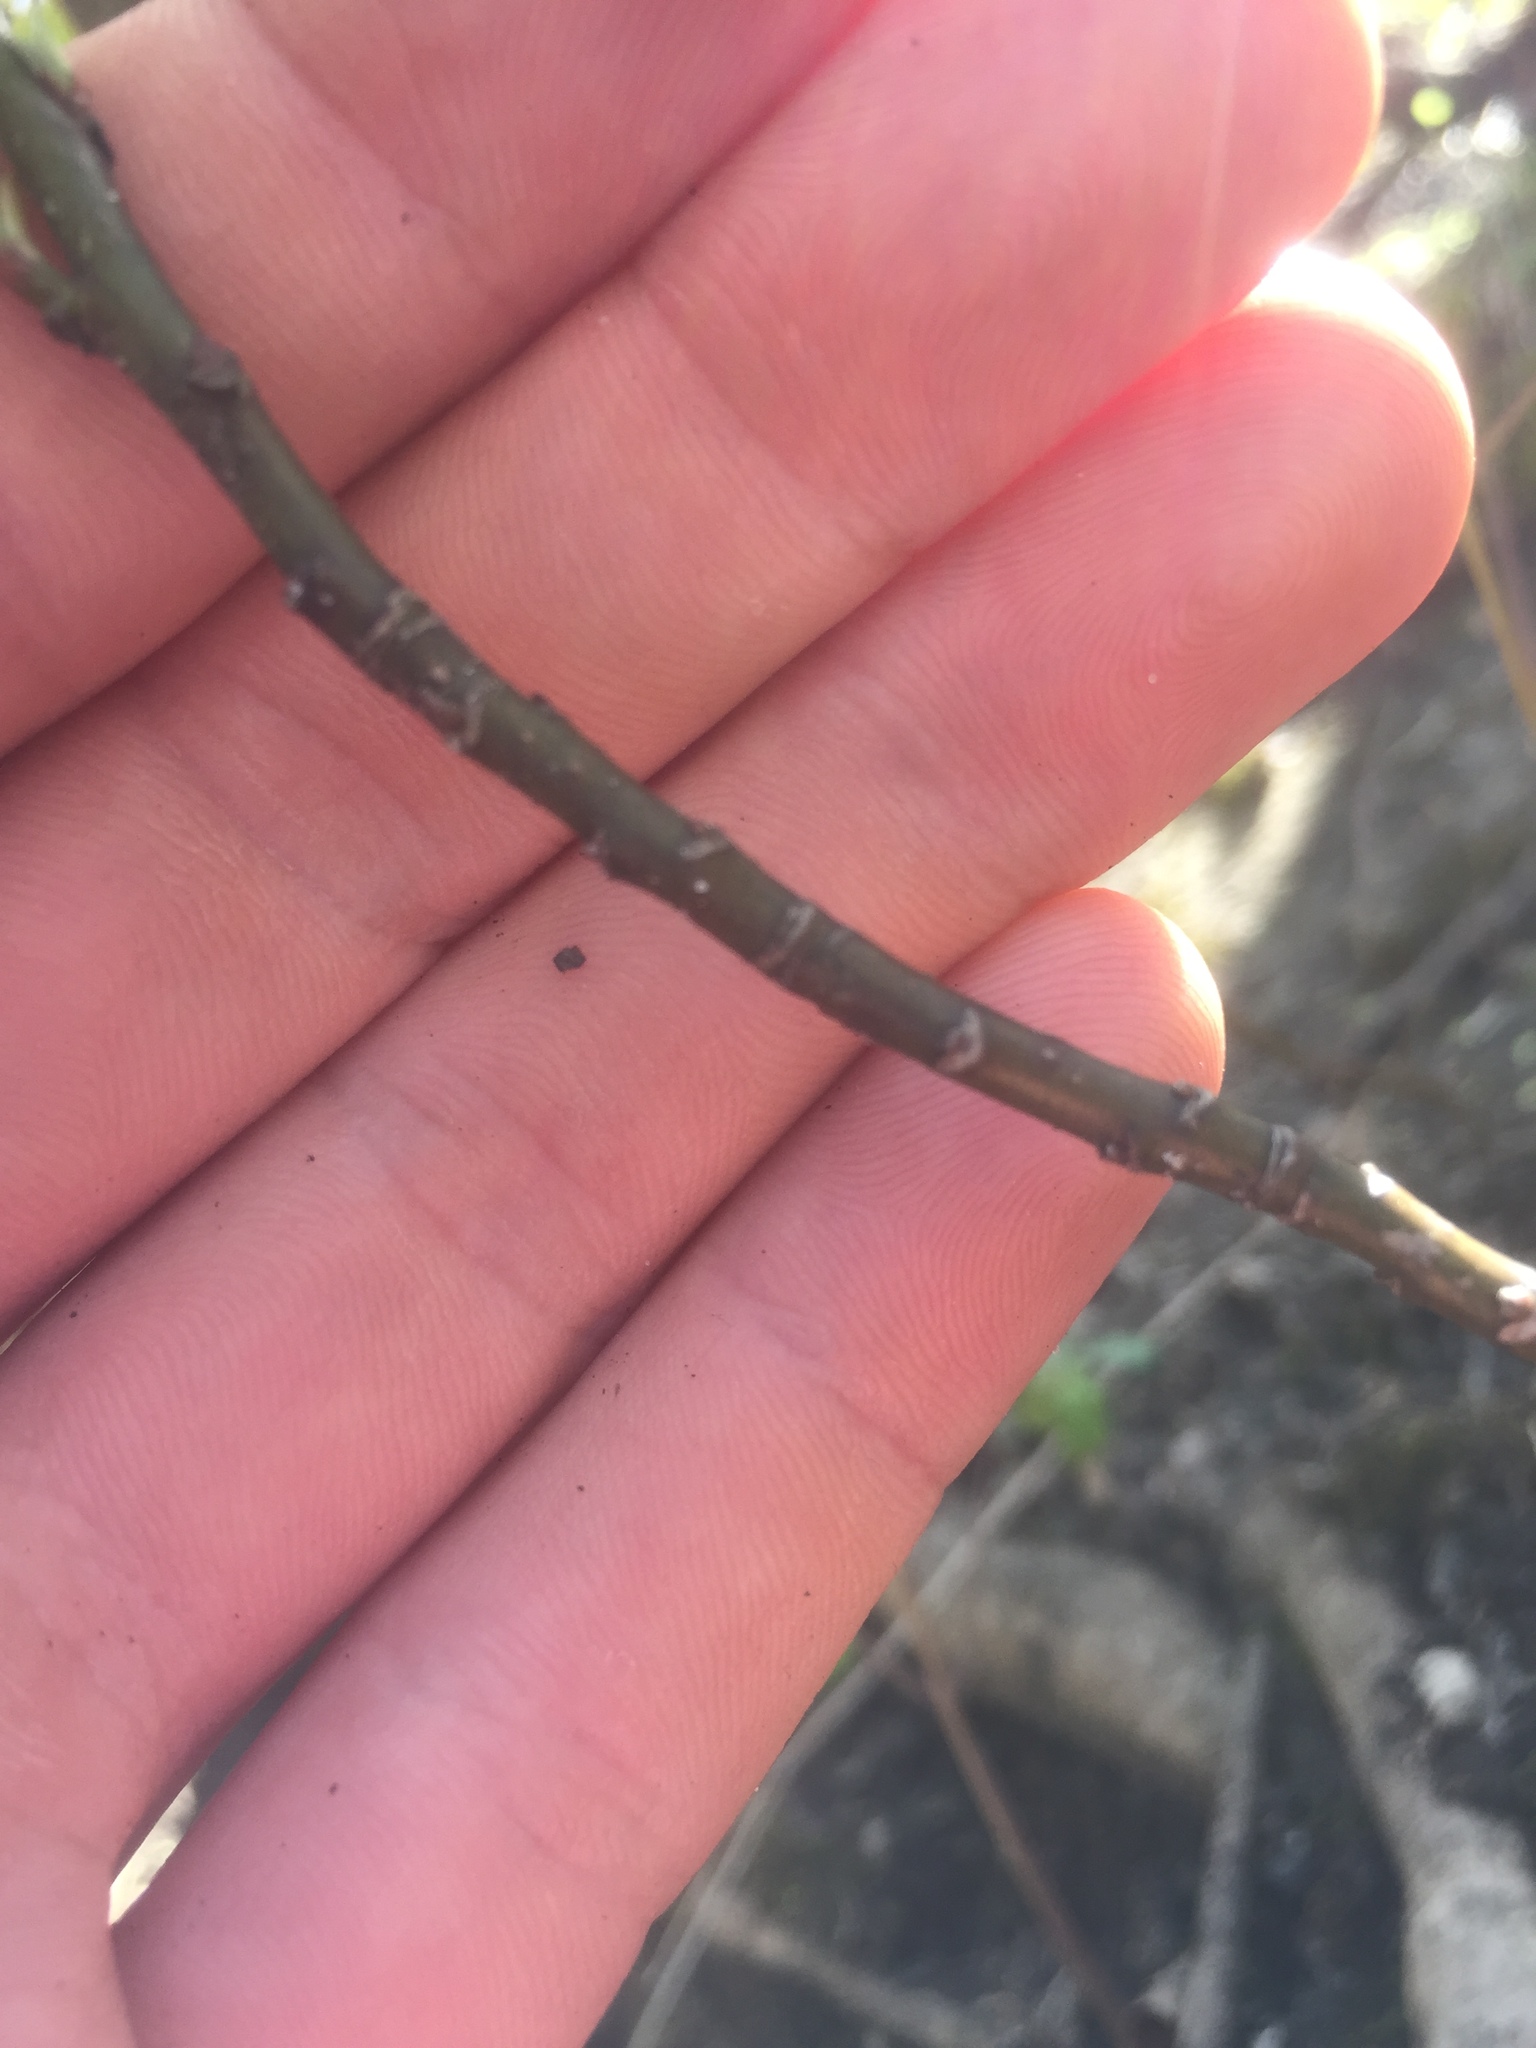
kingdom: Plantae
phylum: Tracheophyta
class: Magnoliopsida
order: Cornales
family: Cornaceae
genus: Cornus
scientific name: Cornus alternifolia
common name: Pagoda dogwood
